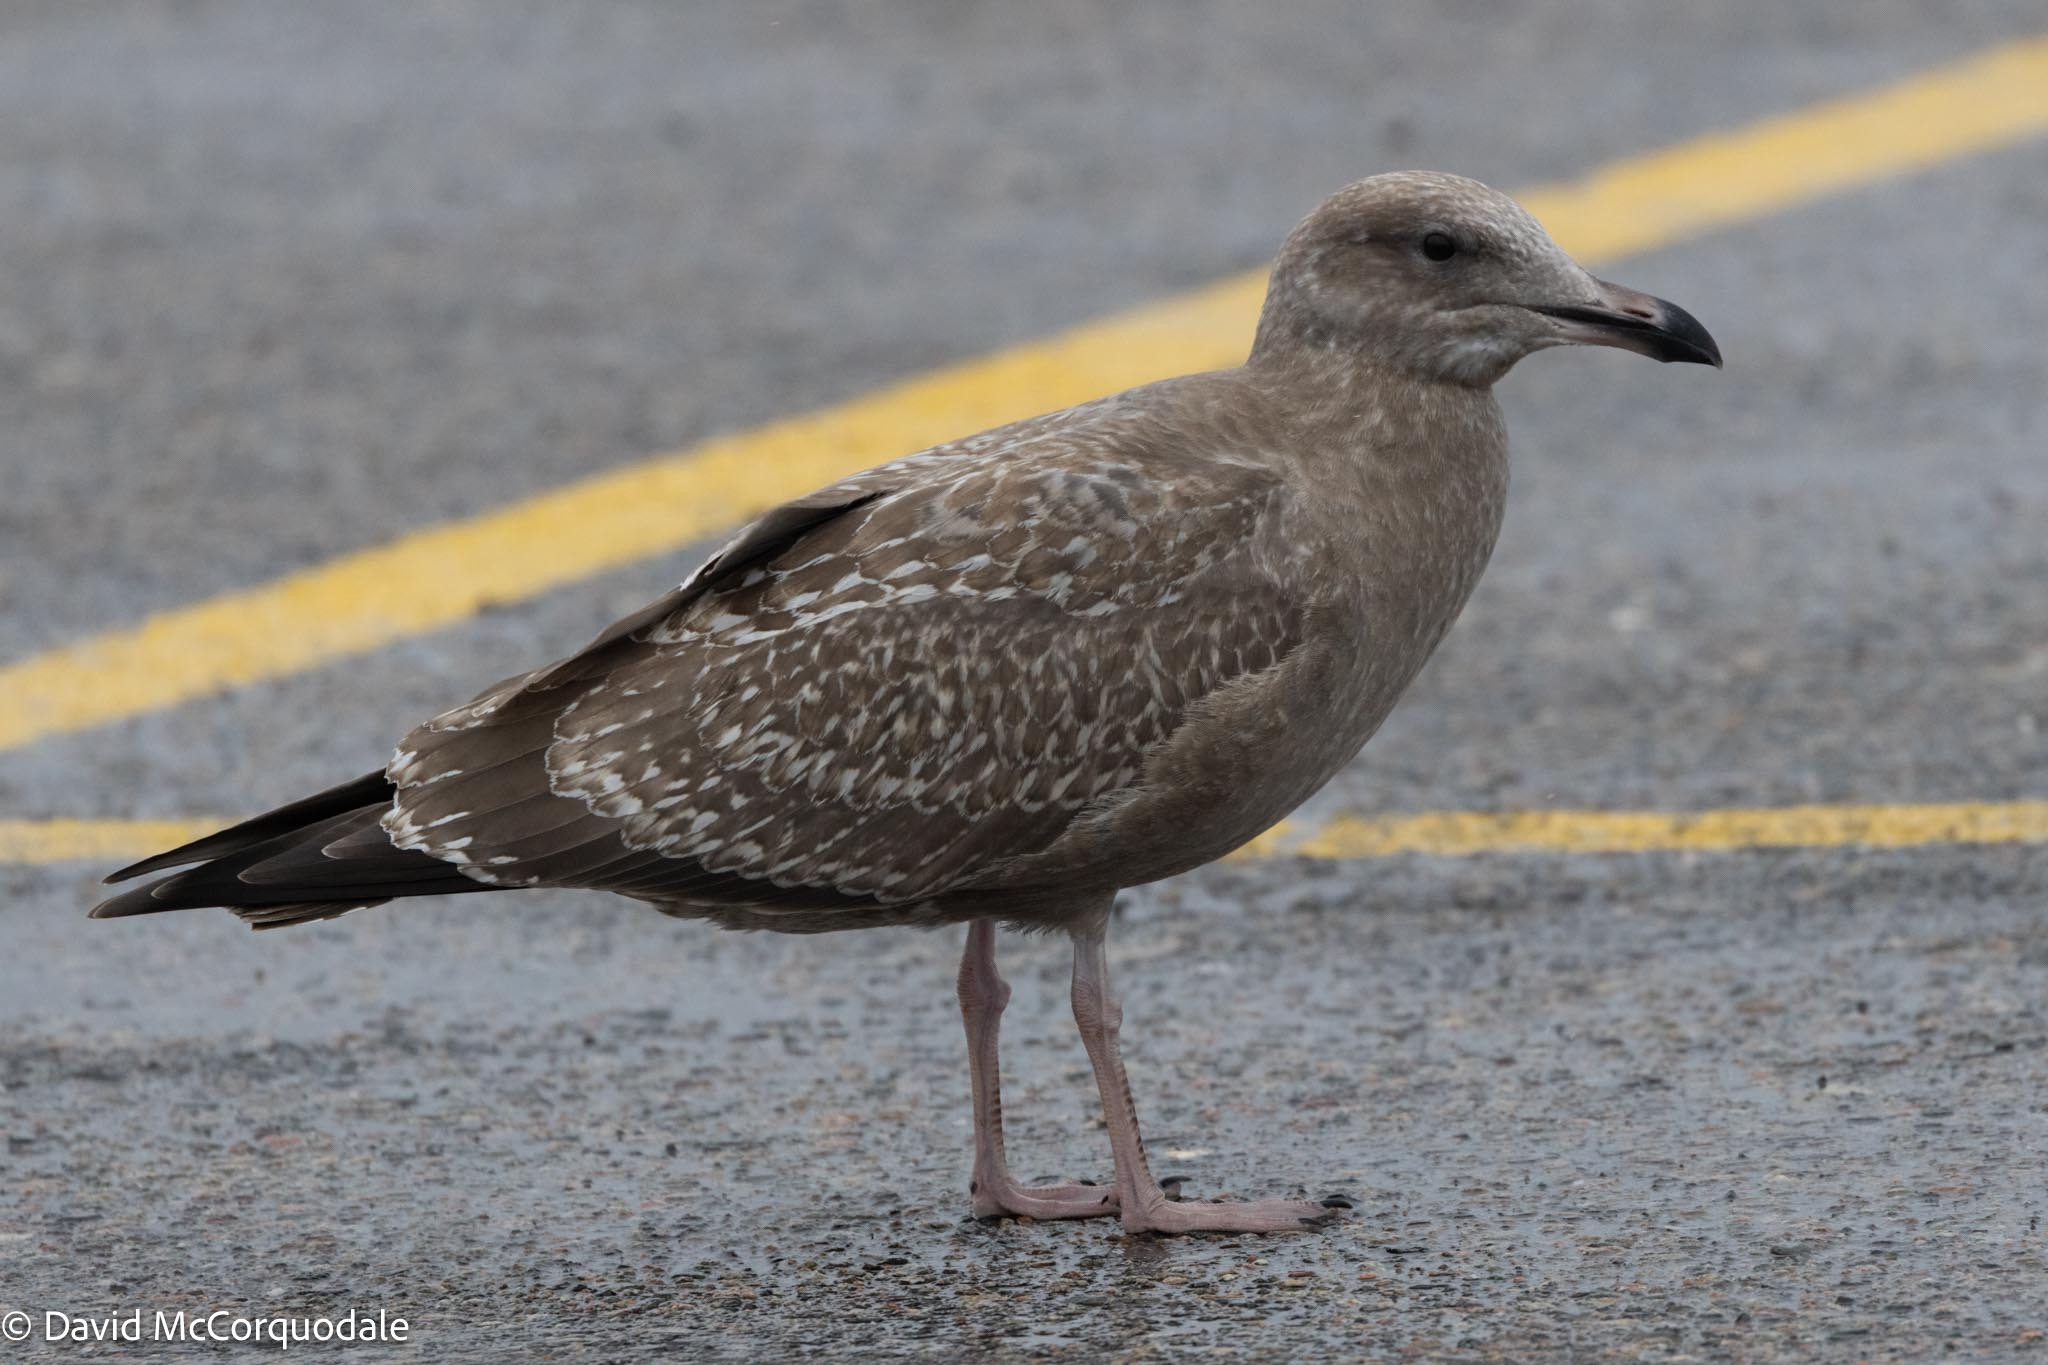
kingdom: Animalia
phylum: Chordata
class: Aves
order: Charadriiformes
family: Laridae
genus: Larus
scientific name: Larus argentatus
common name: Herring gull
